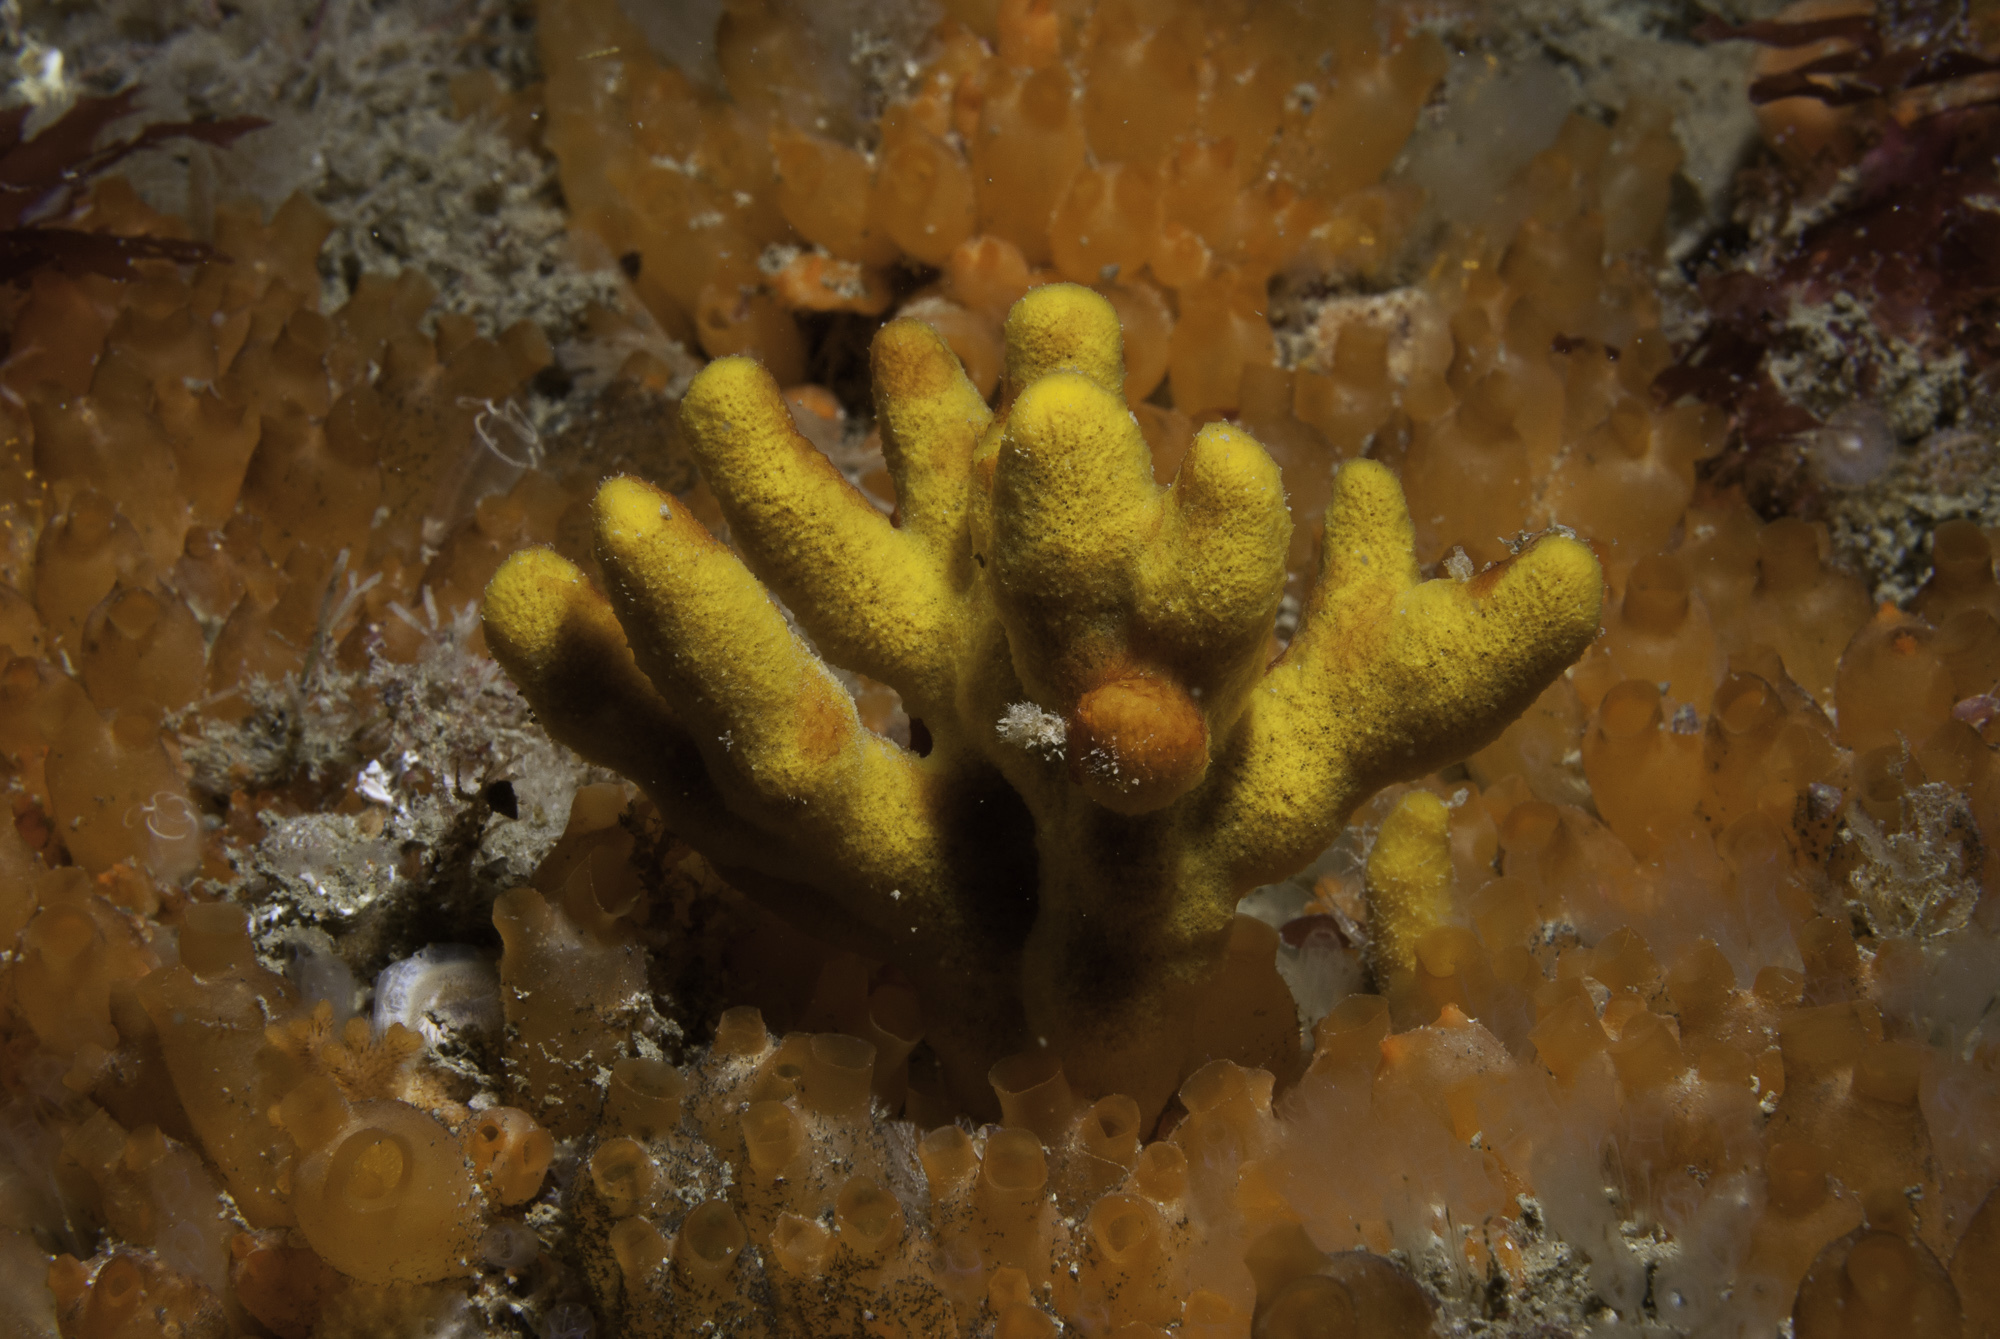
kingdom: Animalia
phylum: Porifera
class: Demospongiae
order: Axinellida
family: Raspailiidae
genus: Raspailia
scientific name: Raspailia agnata
